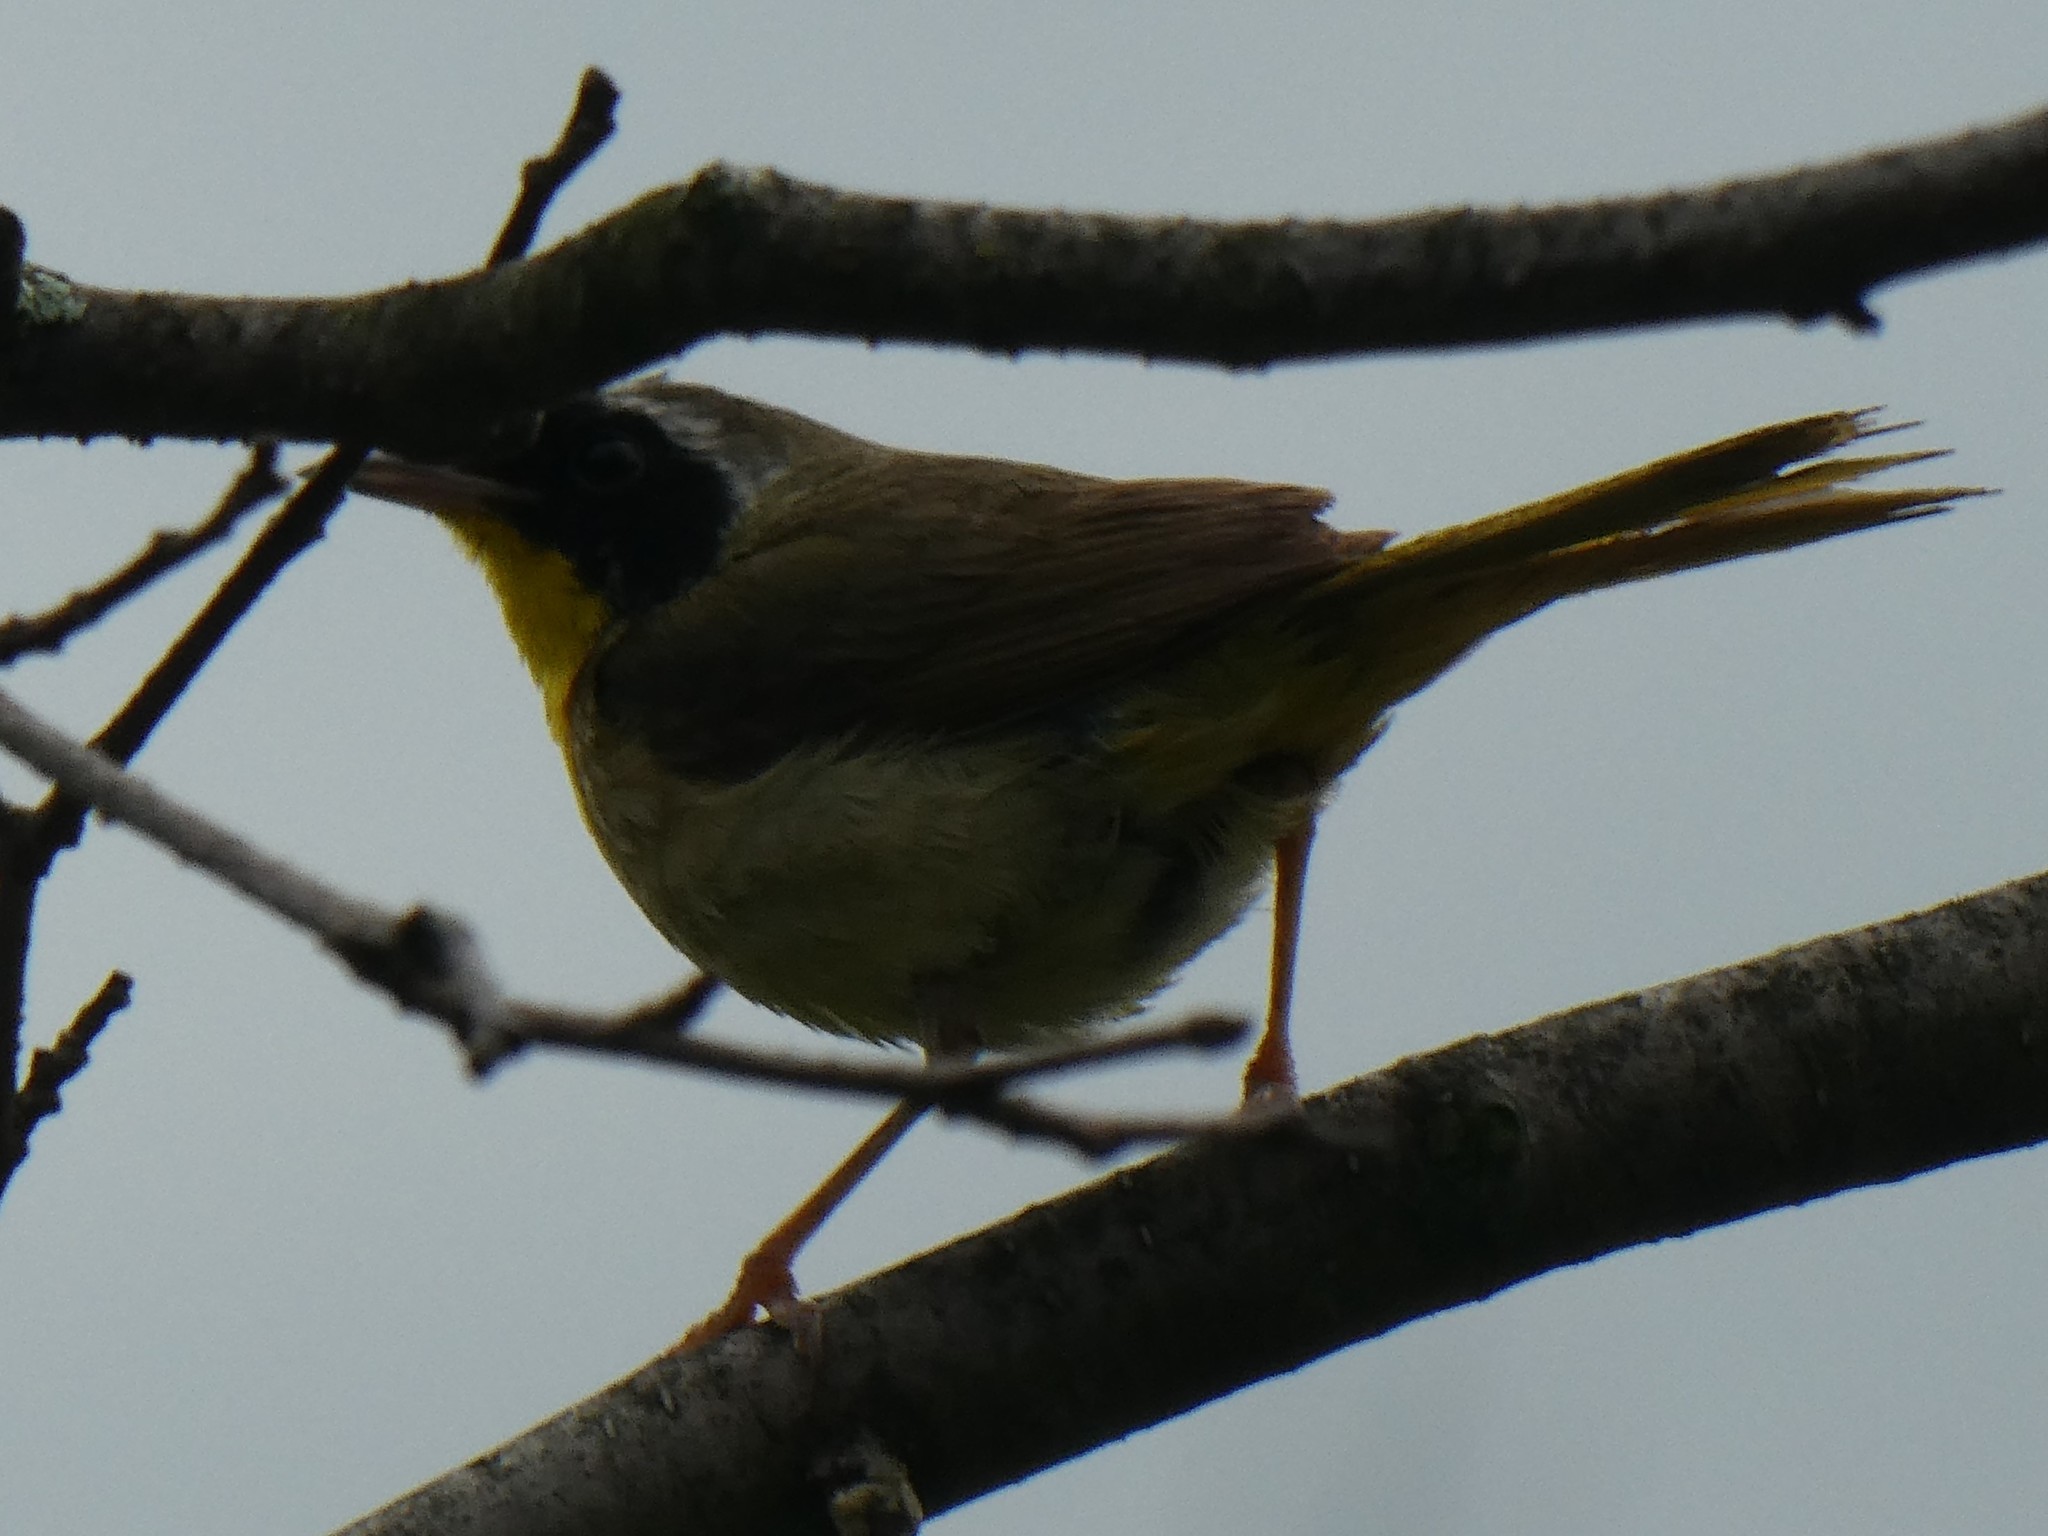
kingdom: Animalia
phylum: Chordata
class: Aves
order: Passeriformes
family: Parulidae
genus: Geothlypis
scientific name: Geothlypis trichas
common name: Common yellowthroat
